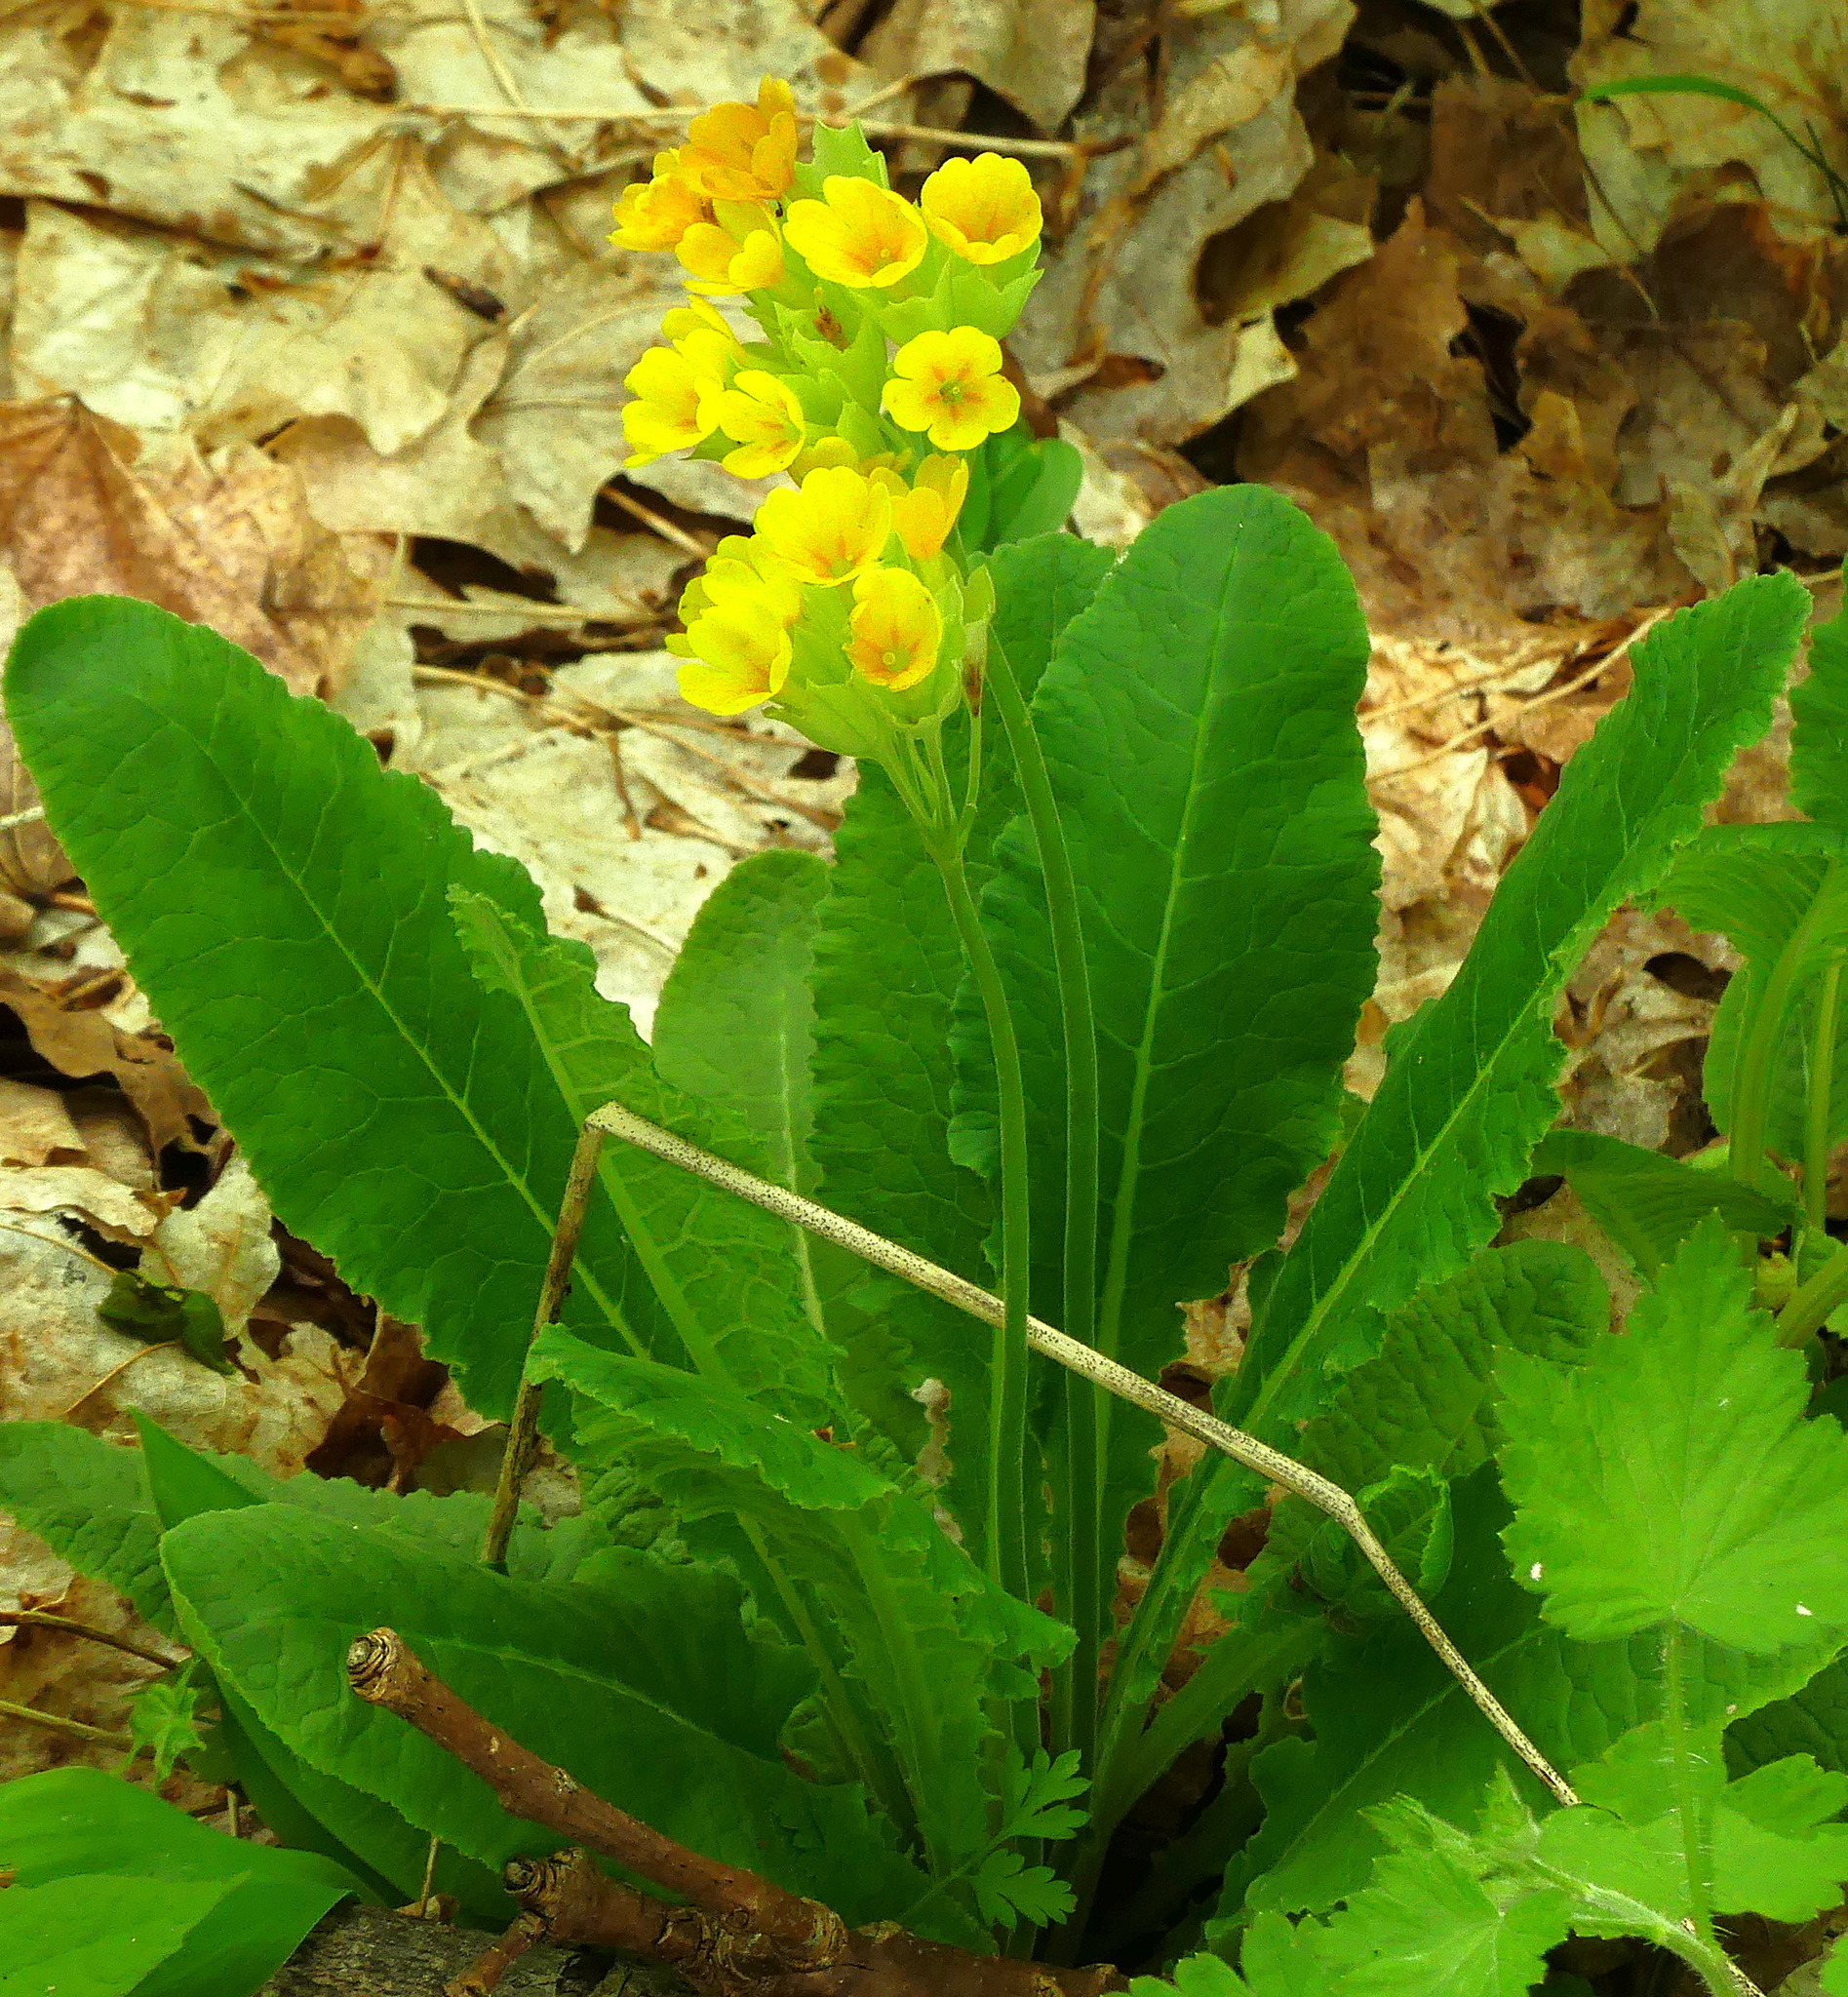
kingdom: Plantae
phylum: Tracheophyta
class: Magnoliopsida
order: Ericales
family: Primulaceae
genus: Primula
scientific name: Primula veris
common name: Cowslip
